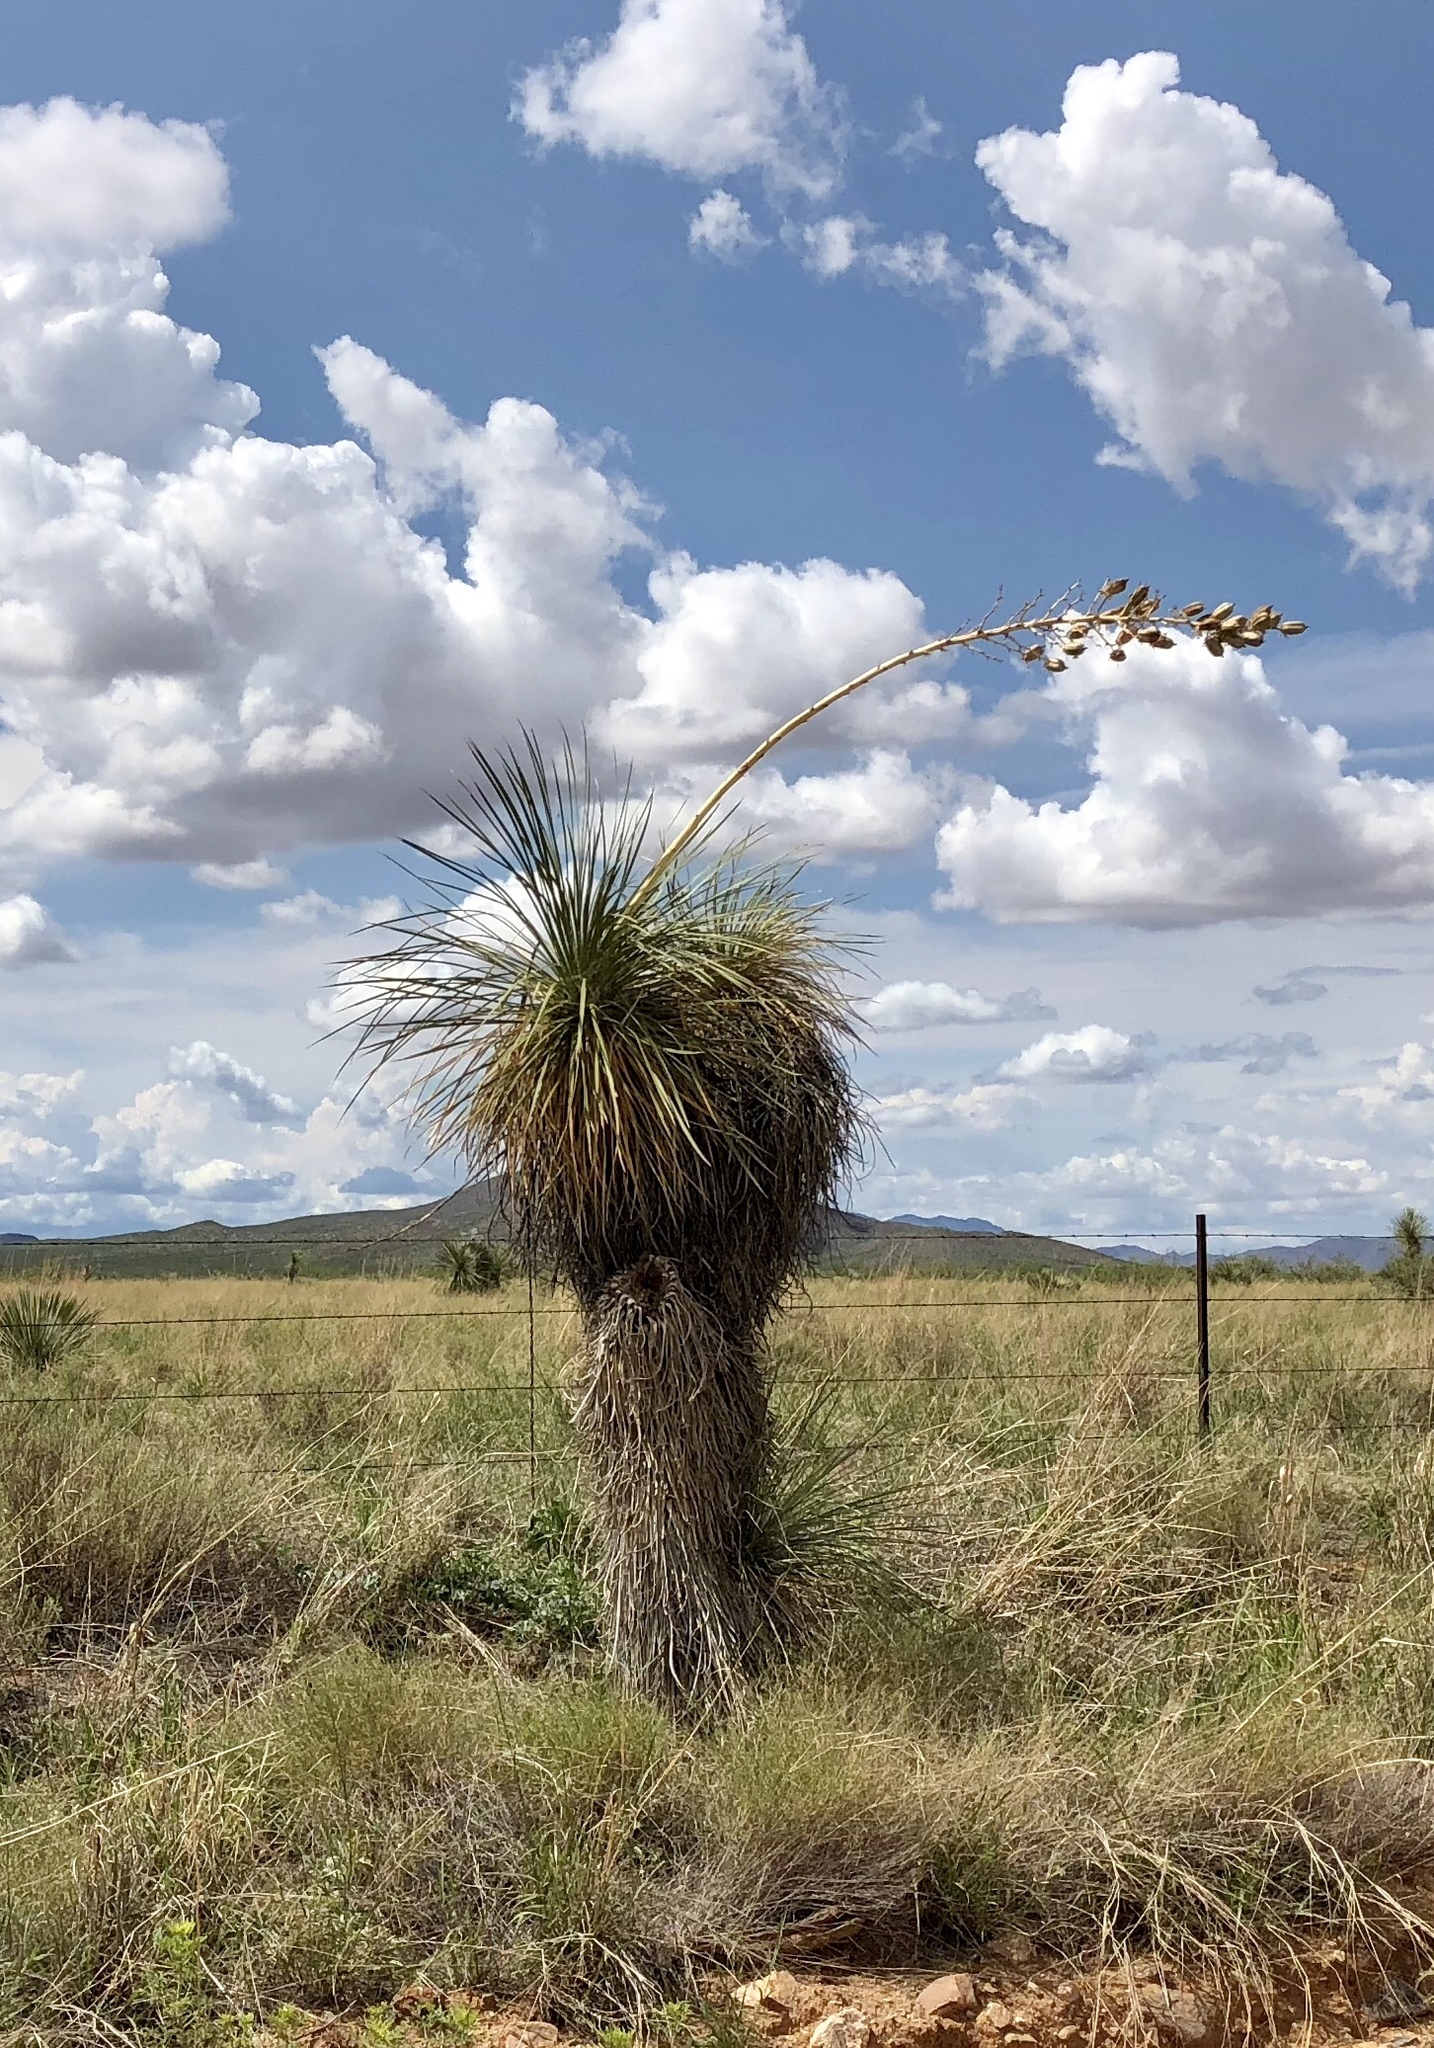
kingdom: Plantae
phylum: Tracheophyta
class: Liliopsida
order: Asparagales
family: Asparagaceae
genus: Yucca
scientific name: Yucca elata
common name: Palmella
